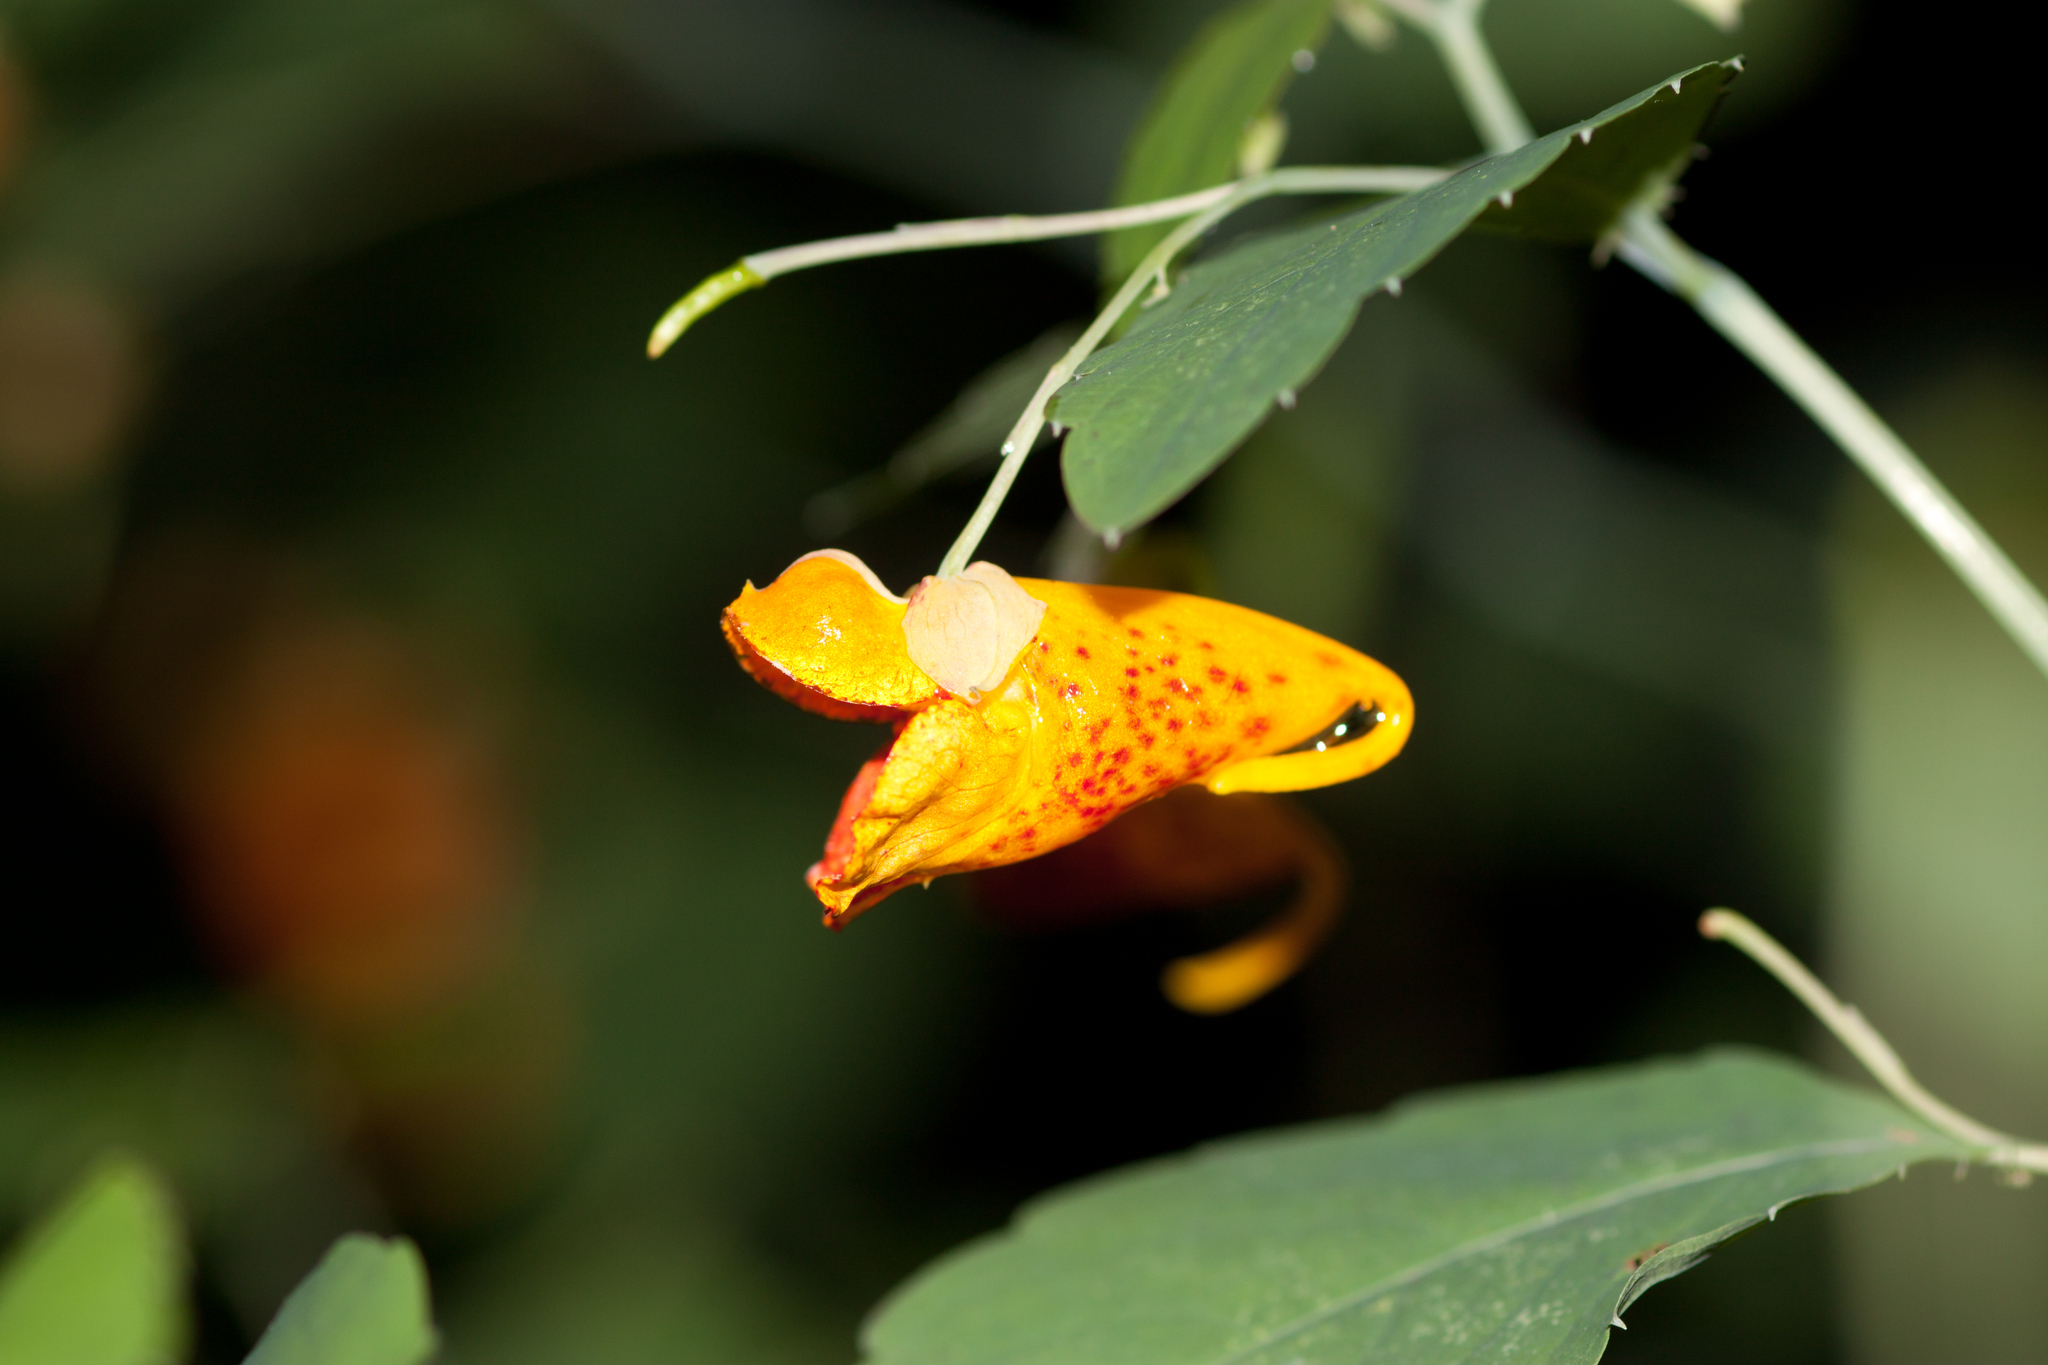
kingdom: Plantae
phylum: Tracheophyta
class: Magnoliopsida
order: Ericales
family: Balsaminaceae
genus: Impatiens
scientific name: Impatiens capensis
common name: Orange balsam
